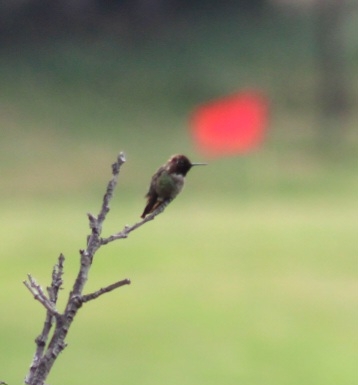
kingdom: Animalia
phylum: Chordata
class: Aves
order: Apodiformes
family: Trochilidae
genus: Calypte
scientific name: Calypte anna
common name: Anna's hummingbird
